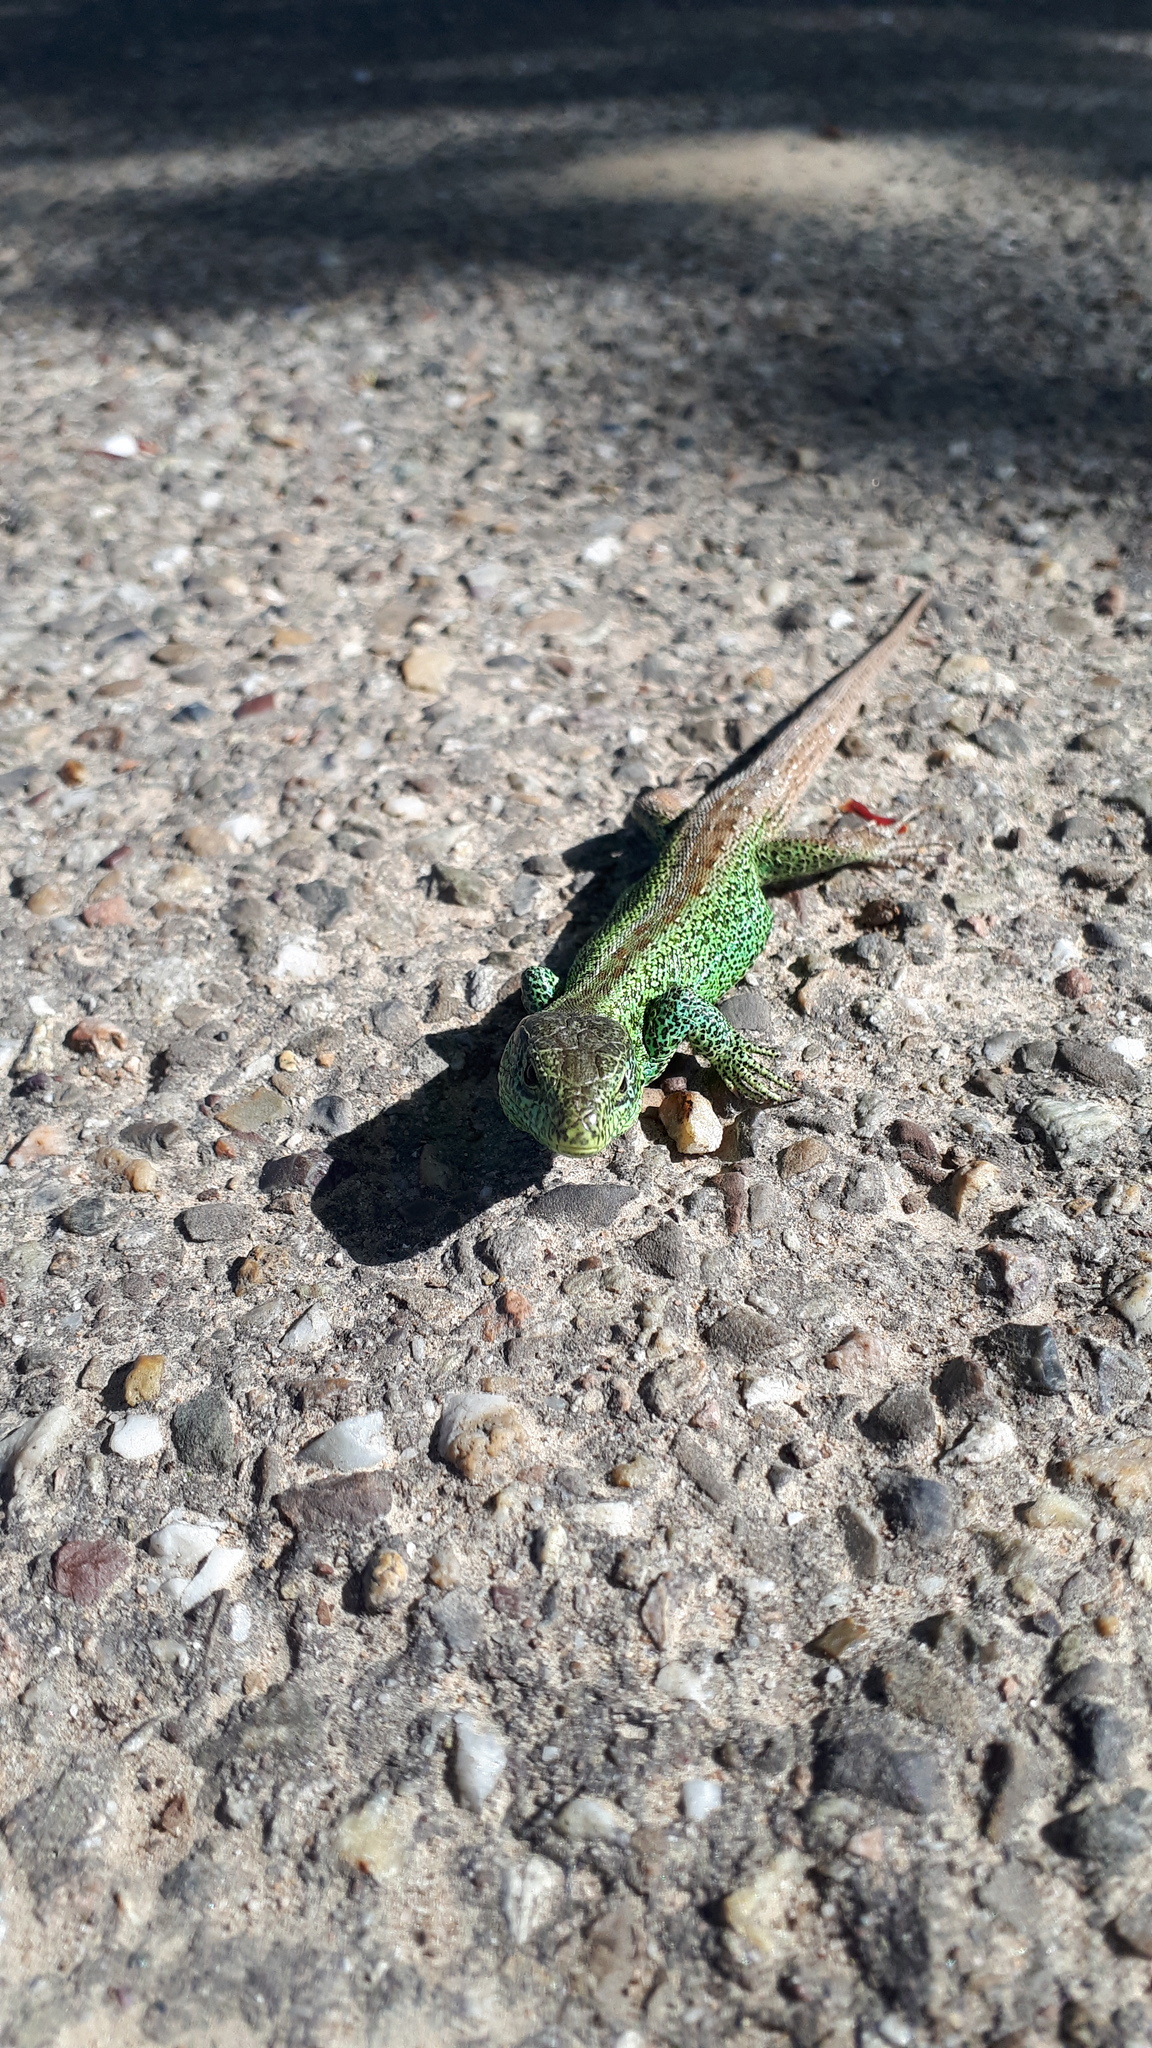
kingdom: Animalia
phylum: Chordata
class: Squamata
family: Lacertidae
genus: Lacerta
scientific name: Lacerta agilis
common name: Sand lizard
